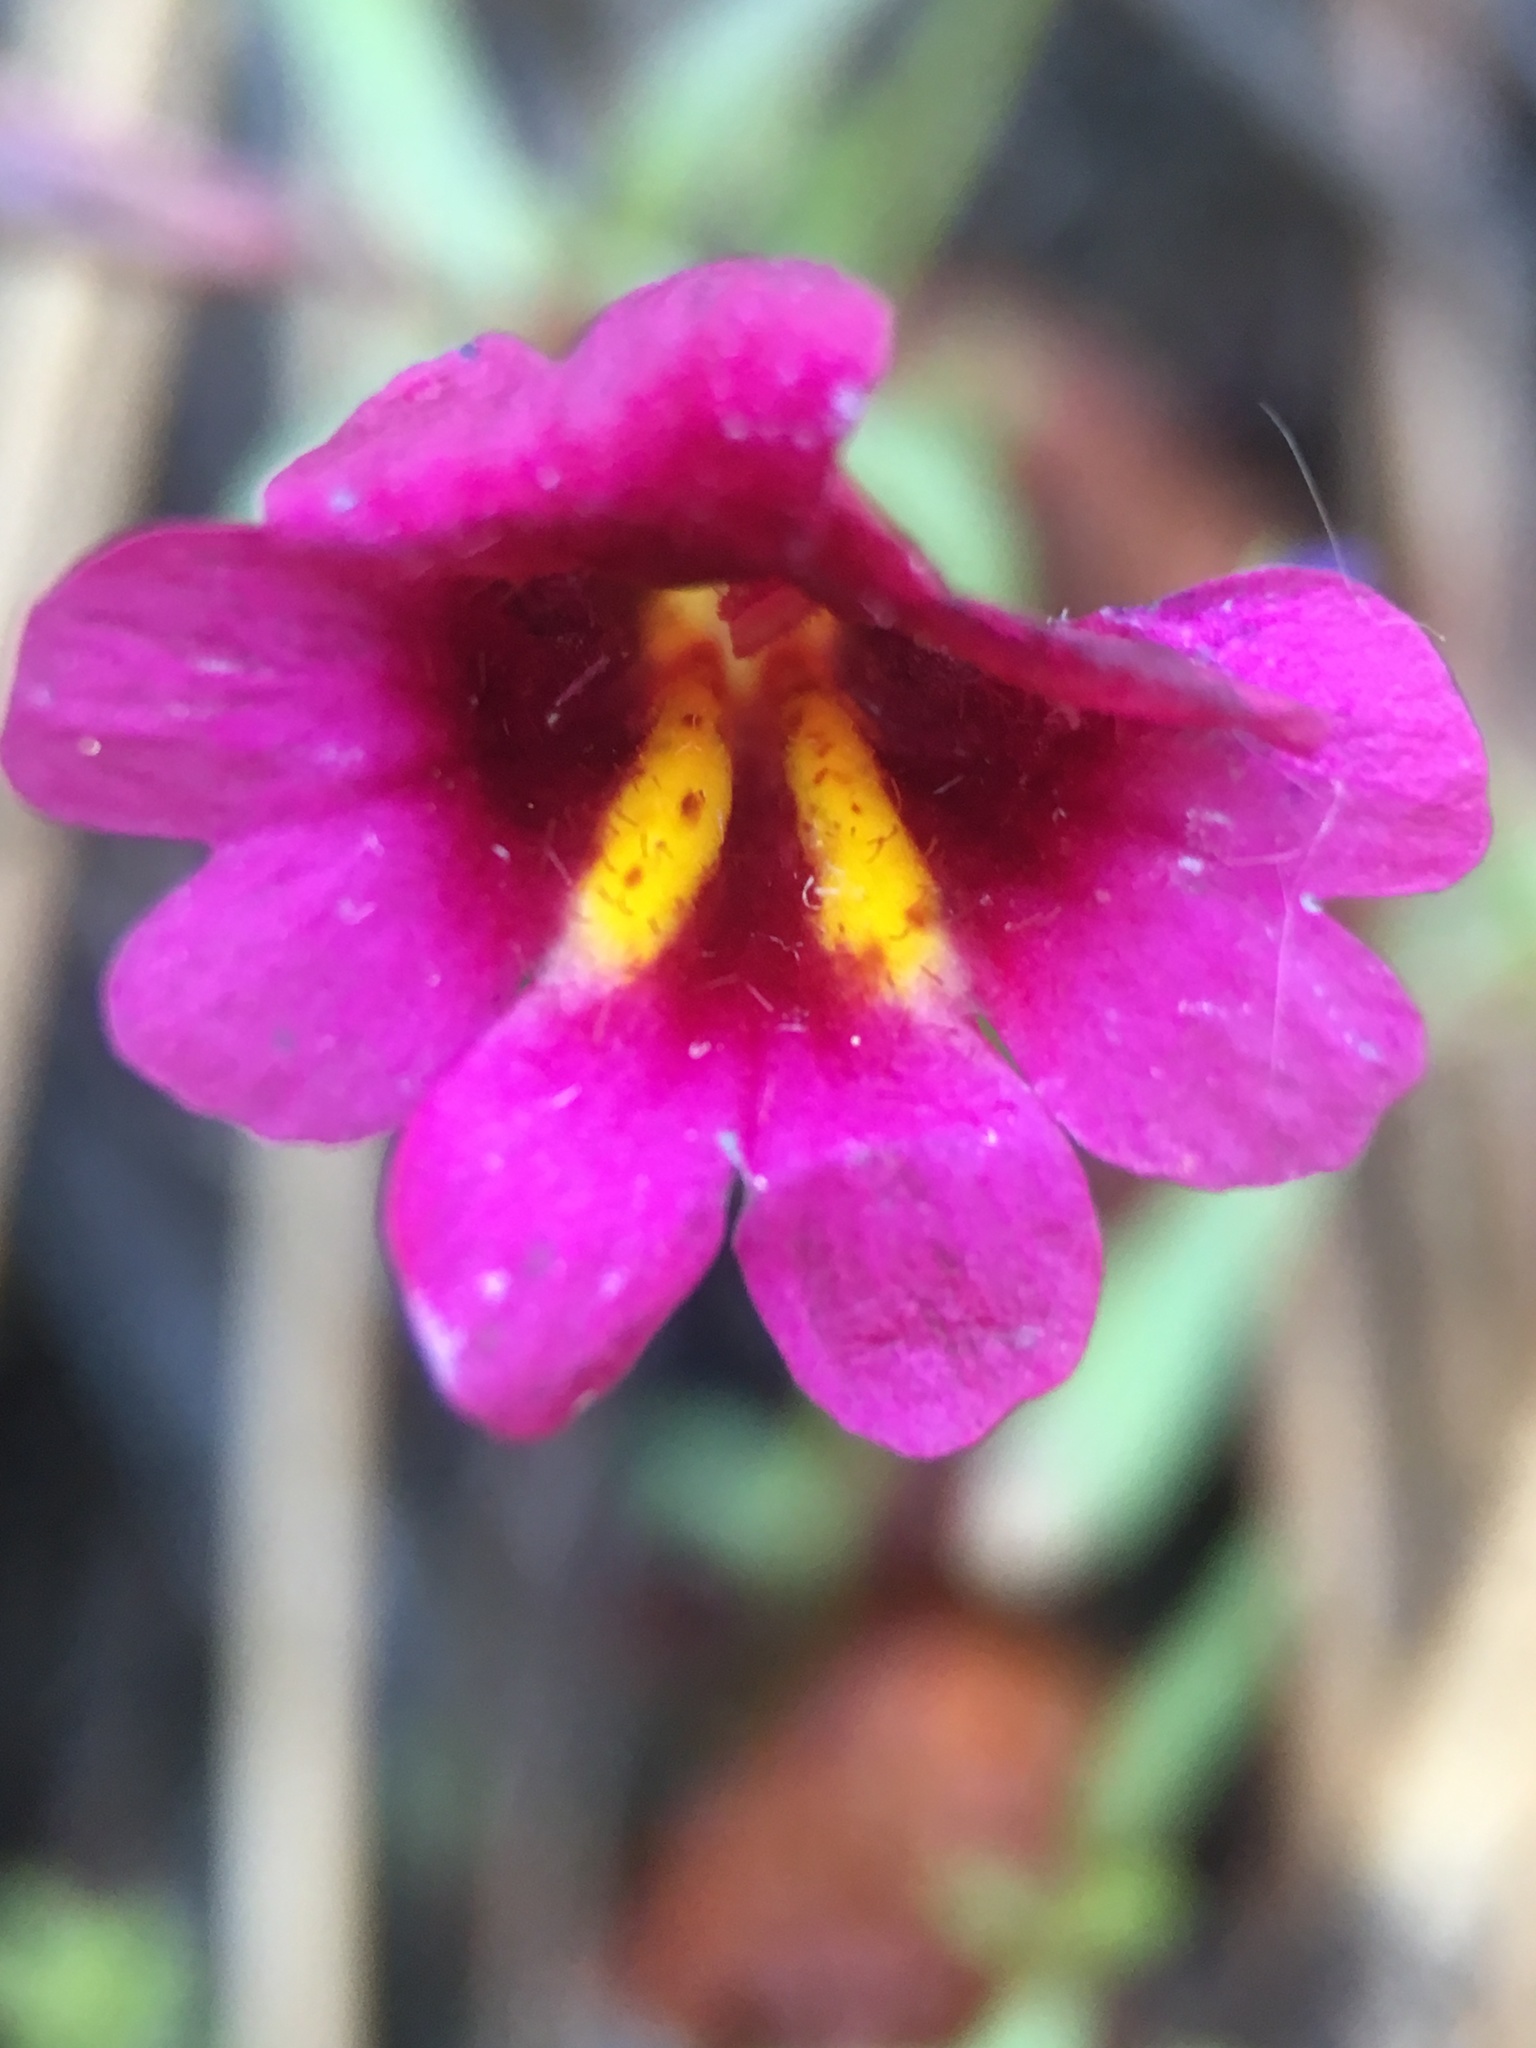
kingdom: Plantae
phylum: Tracheophyta
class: Magnoliopsida
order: Lamiales
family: Phrymaceae
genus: Erythranthe
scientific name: Erythranthe discolor
